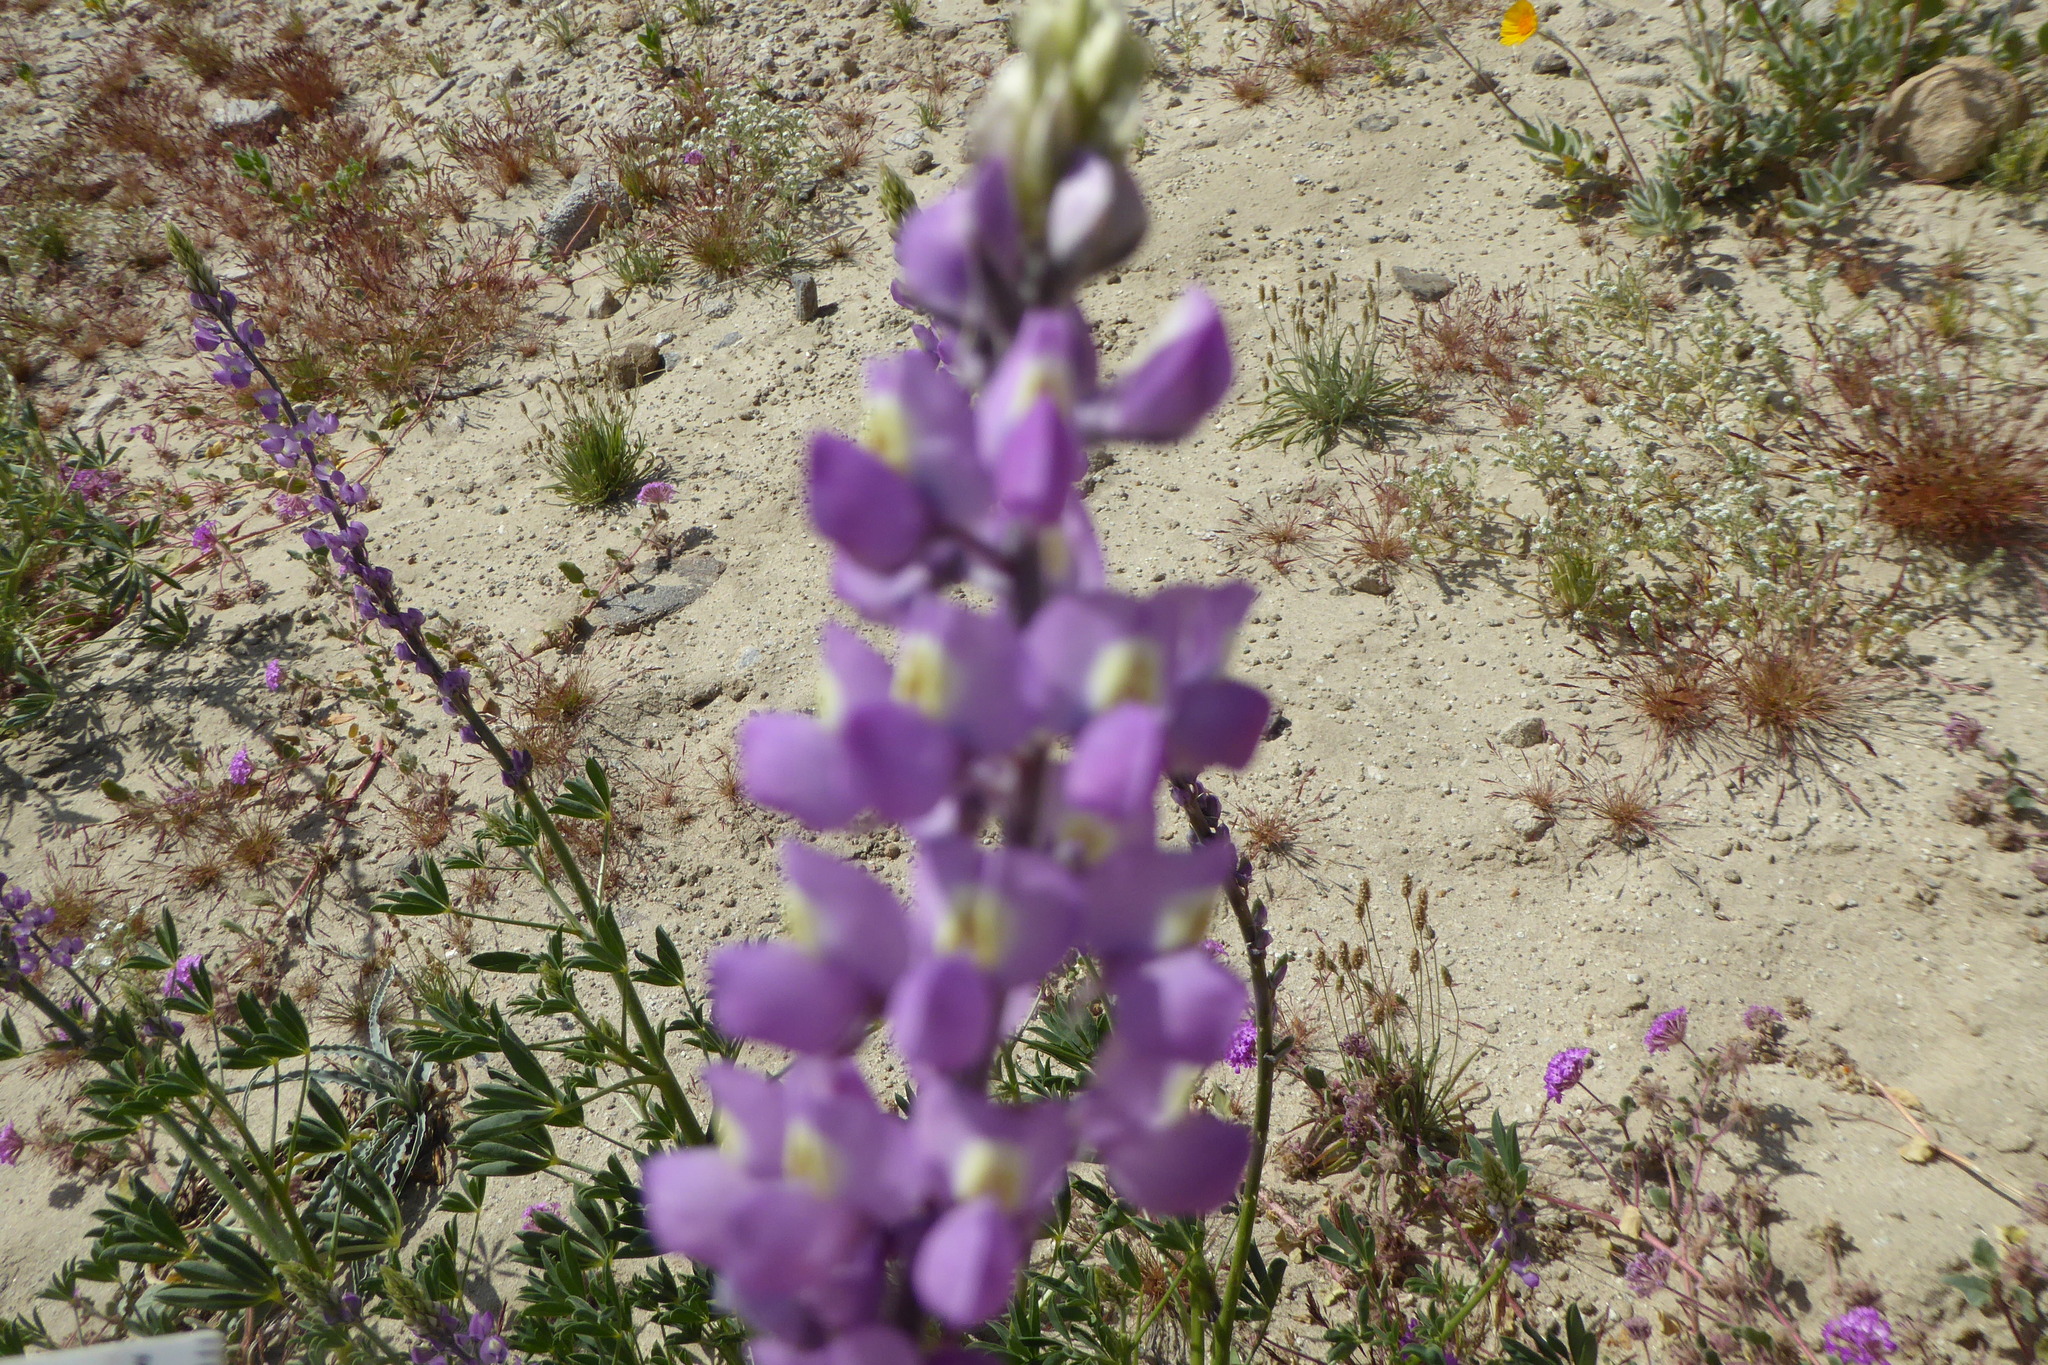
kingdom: Plantae
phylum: Tracheophyta
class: Magnoliopsida
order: Fabales
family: Fabaceae
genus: Lupinus
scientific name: Lupinus arizonicus
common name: Arizona lupine
